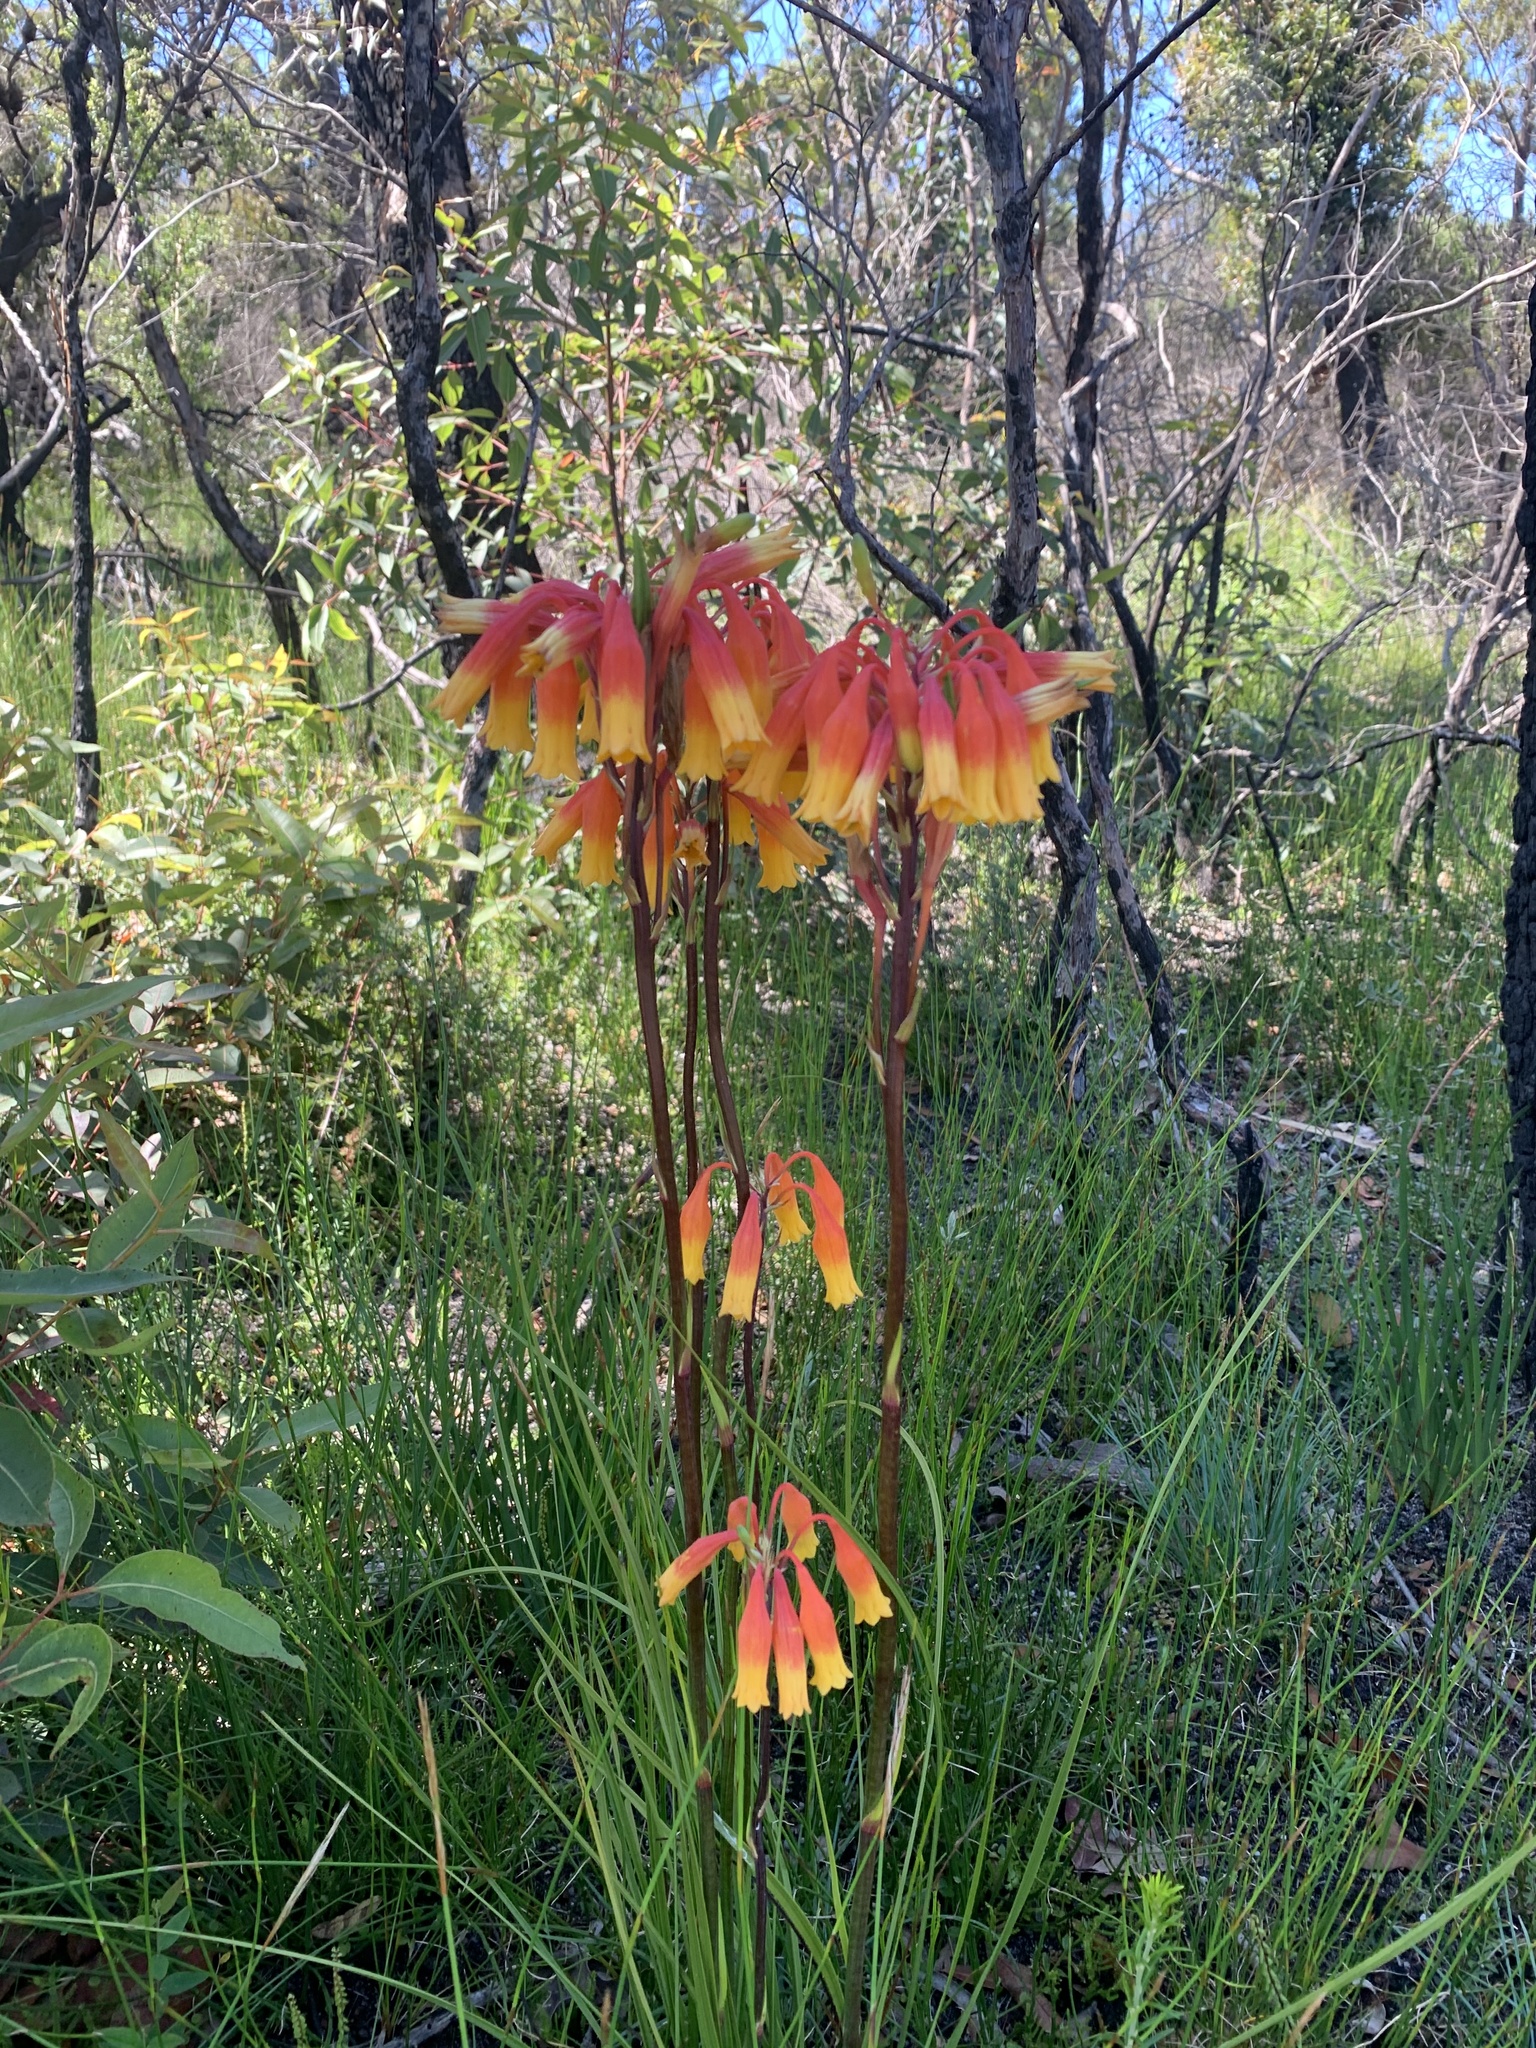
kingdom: Plantae
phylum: Tracheophyta
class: Liliopsida
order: Asparagales
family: Blandfordiaceae
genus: Blandfordia
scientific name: Blandfordia nobilis
